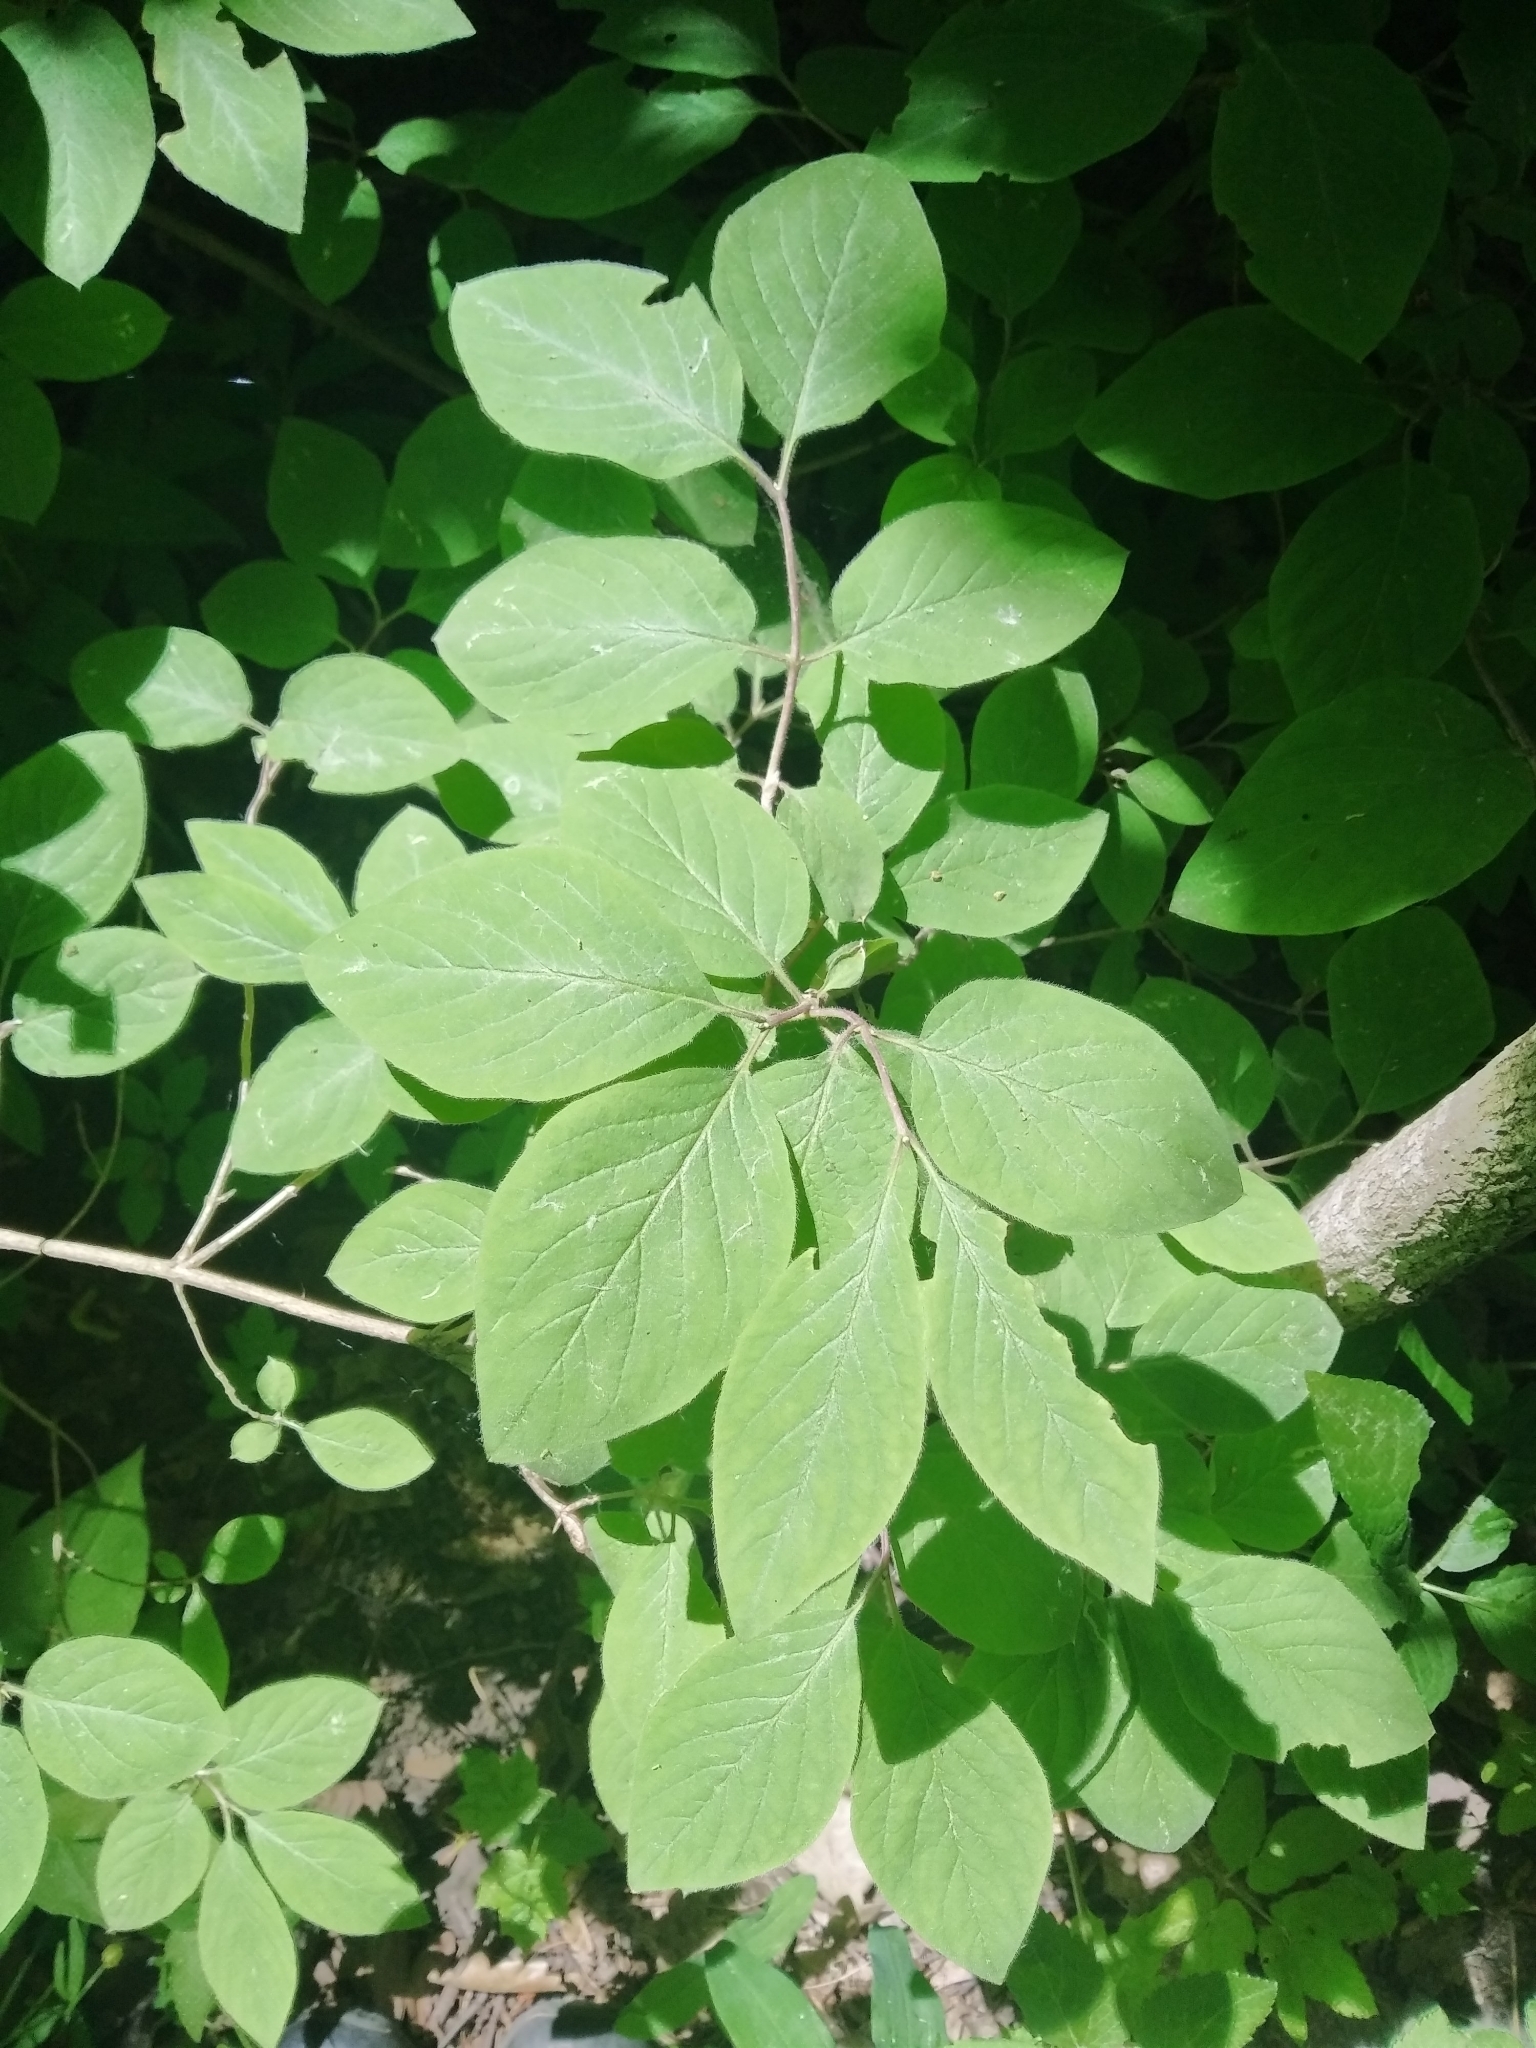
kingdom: Plantae
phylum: Tracheophyta
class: Magnoliopsida
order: Dipsacales
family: Caprifoliaceae
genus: Lonicera
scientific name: Lonicera xylosteum
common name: Fly honeysuckle
